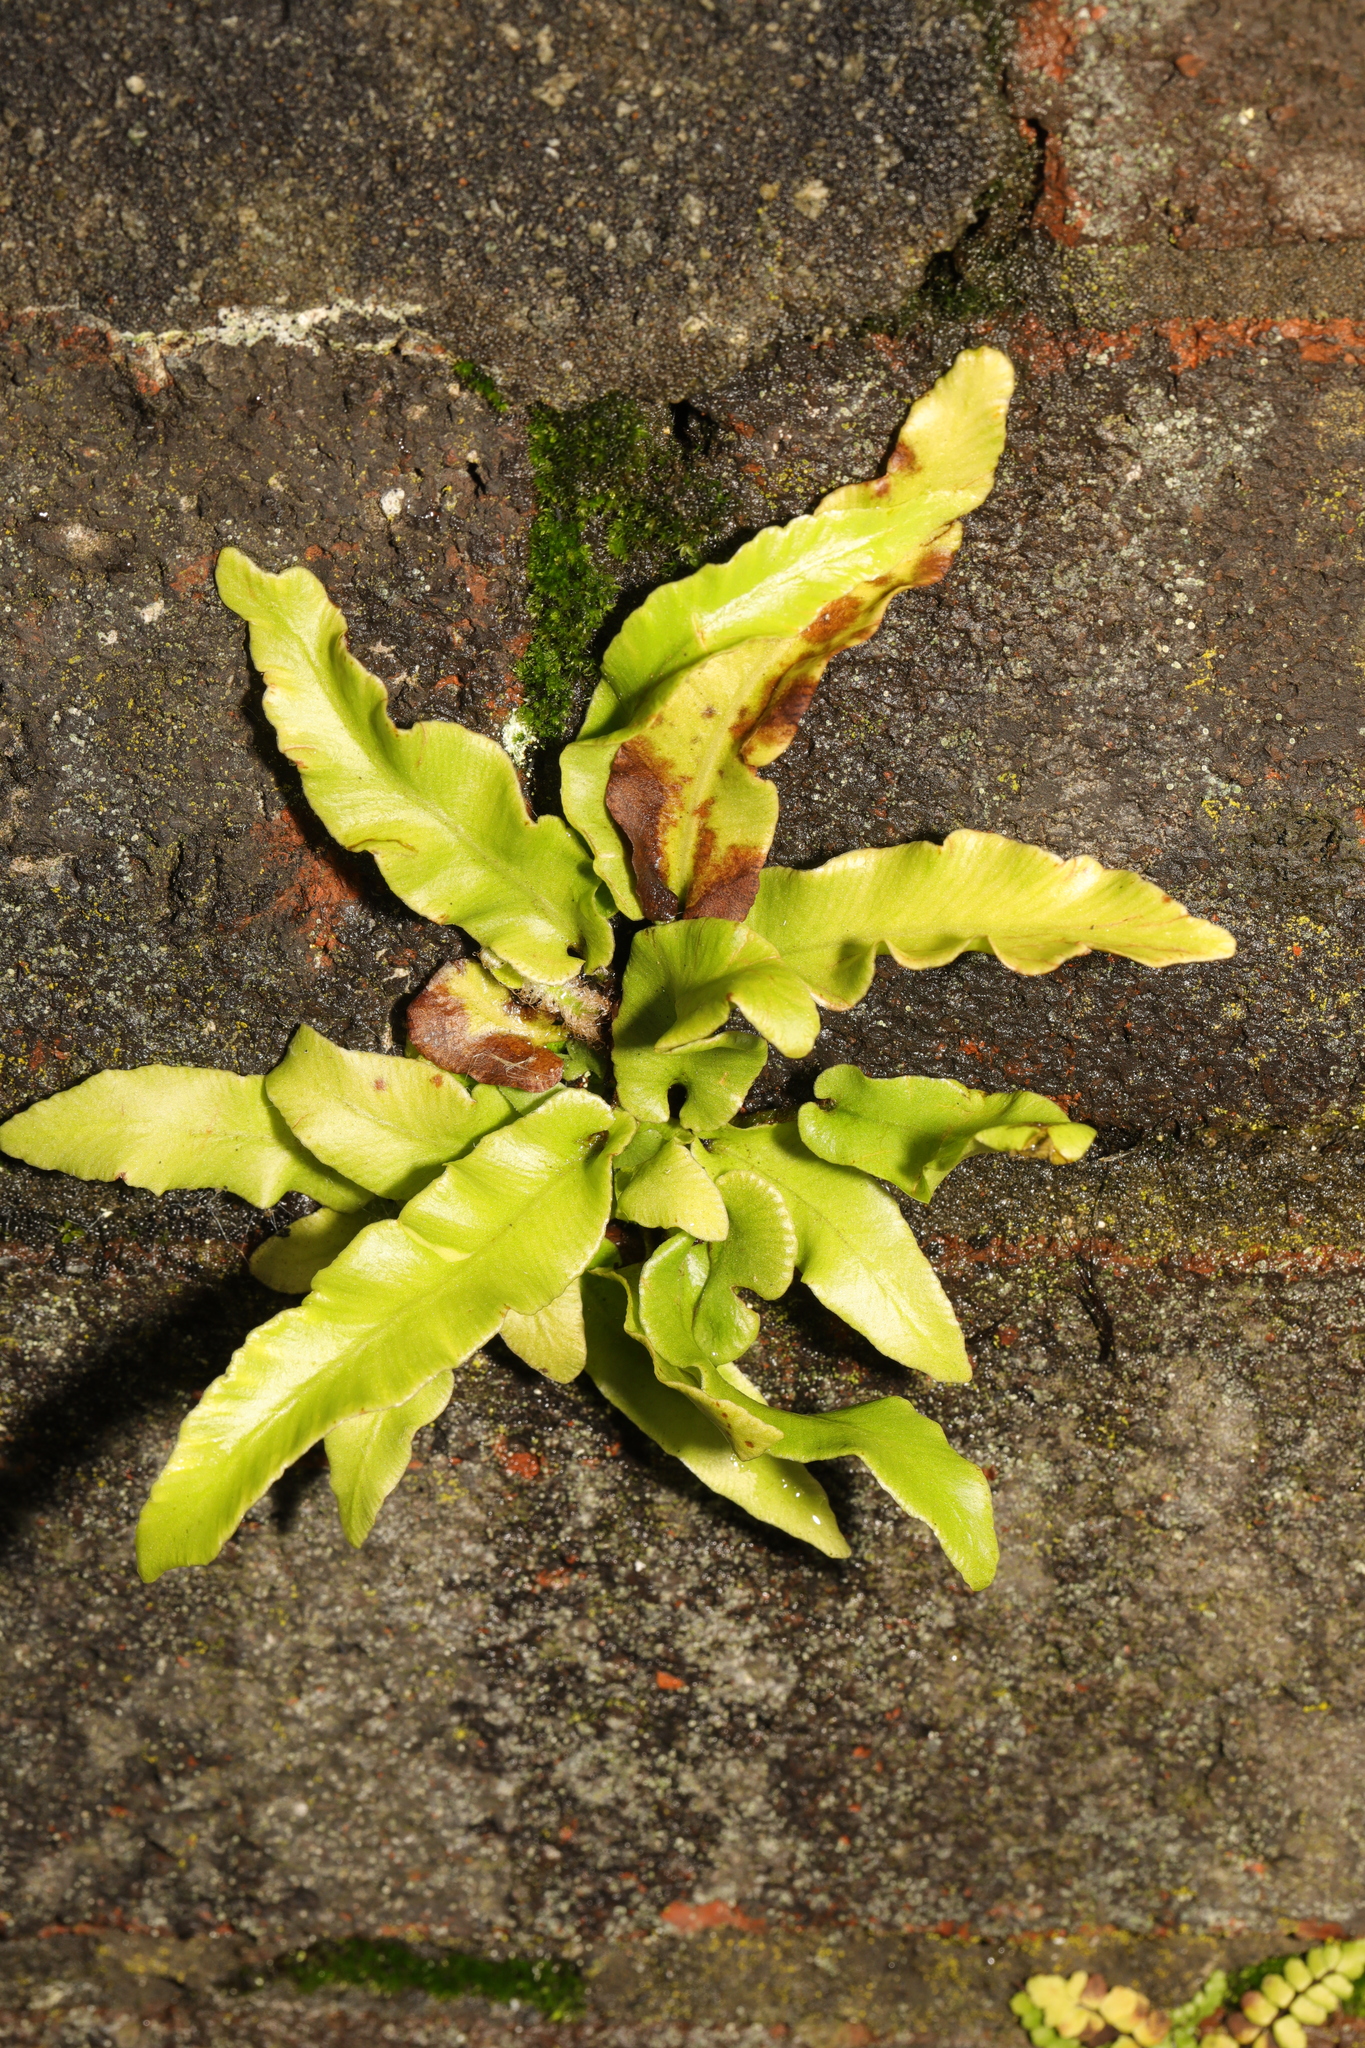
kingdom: Plantae
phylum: Tracheophyta
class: Polypodiopsida
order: Polypodiales
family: Aspleniaceae
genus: Asplenium
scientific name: Asplenium scolopendrium
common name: Hart's-tongue fern
